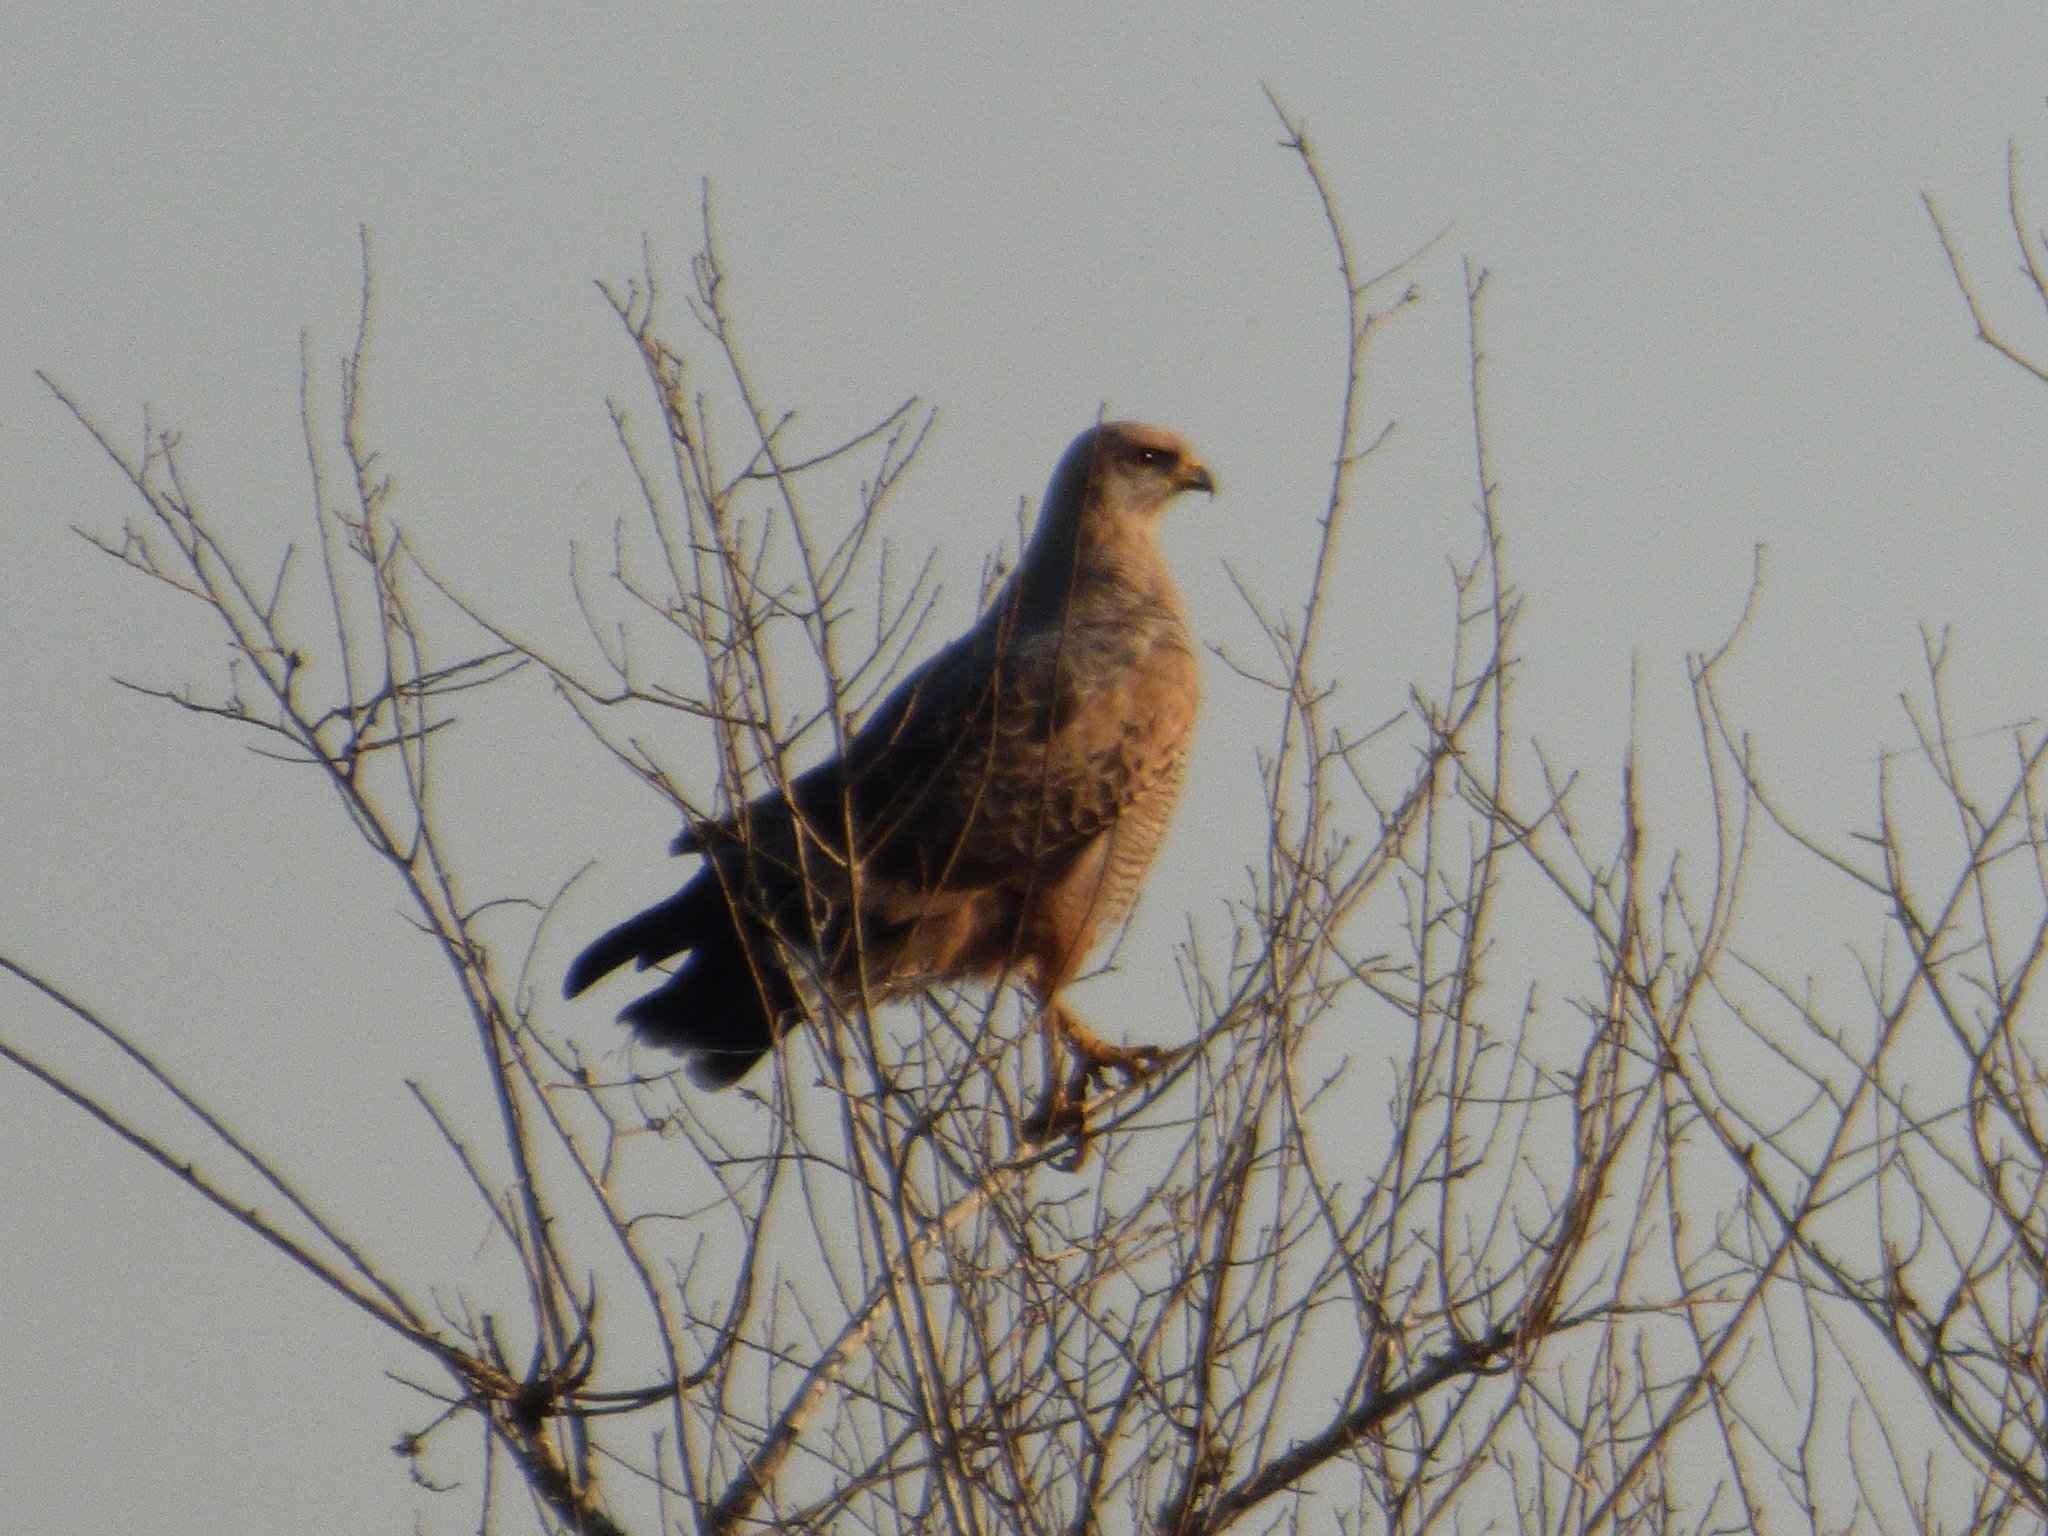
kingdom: Animalia
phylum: Chordata
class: Aves
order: Accipitriformes
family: Accipitridae
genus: Buteogallus
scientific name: Buteogallus meridionalis
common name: Savanna hawk
